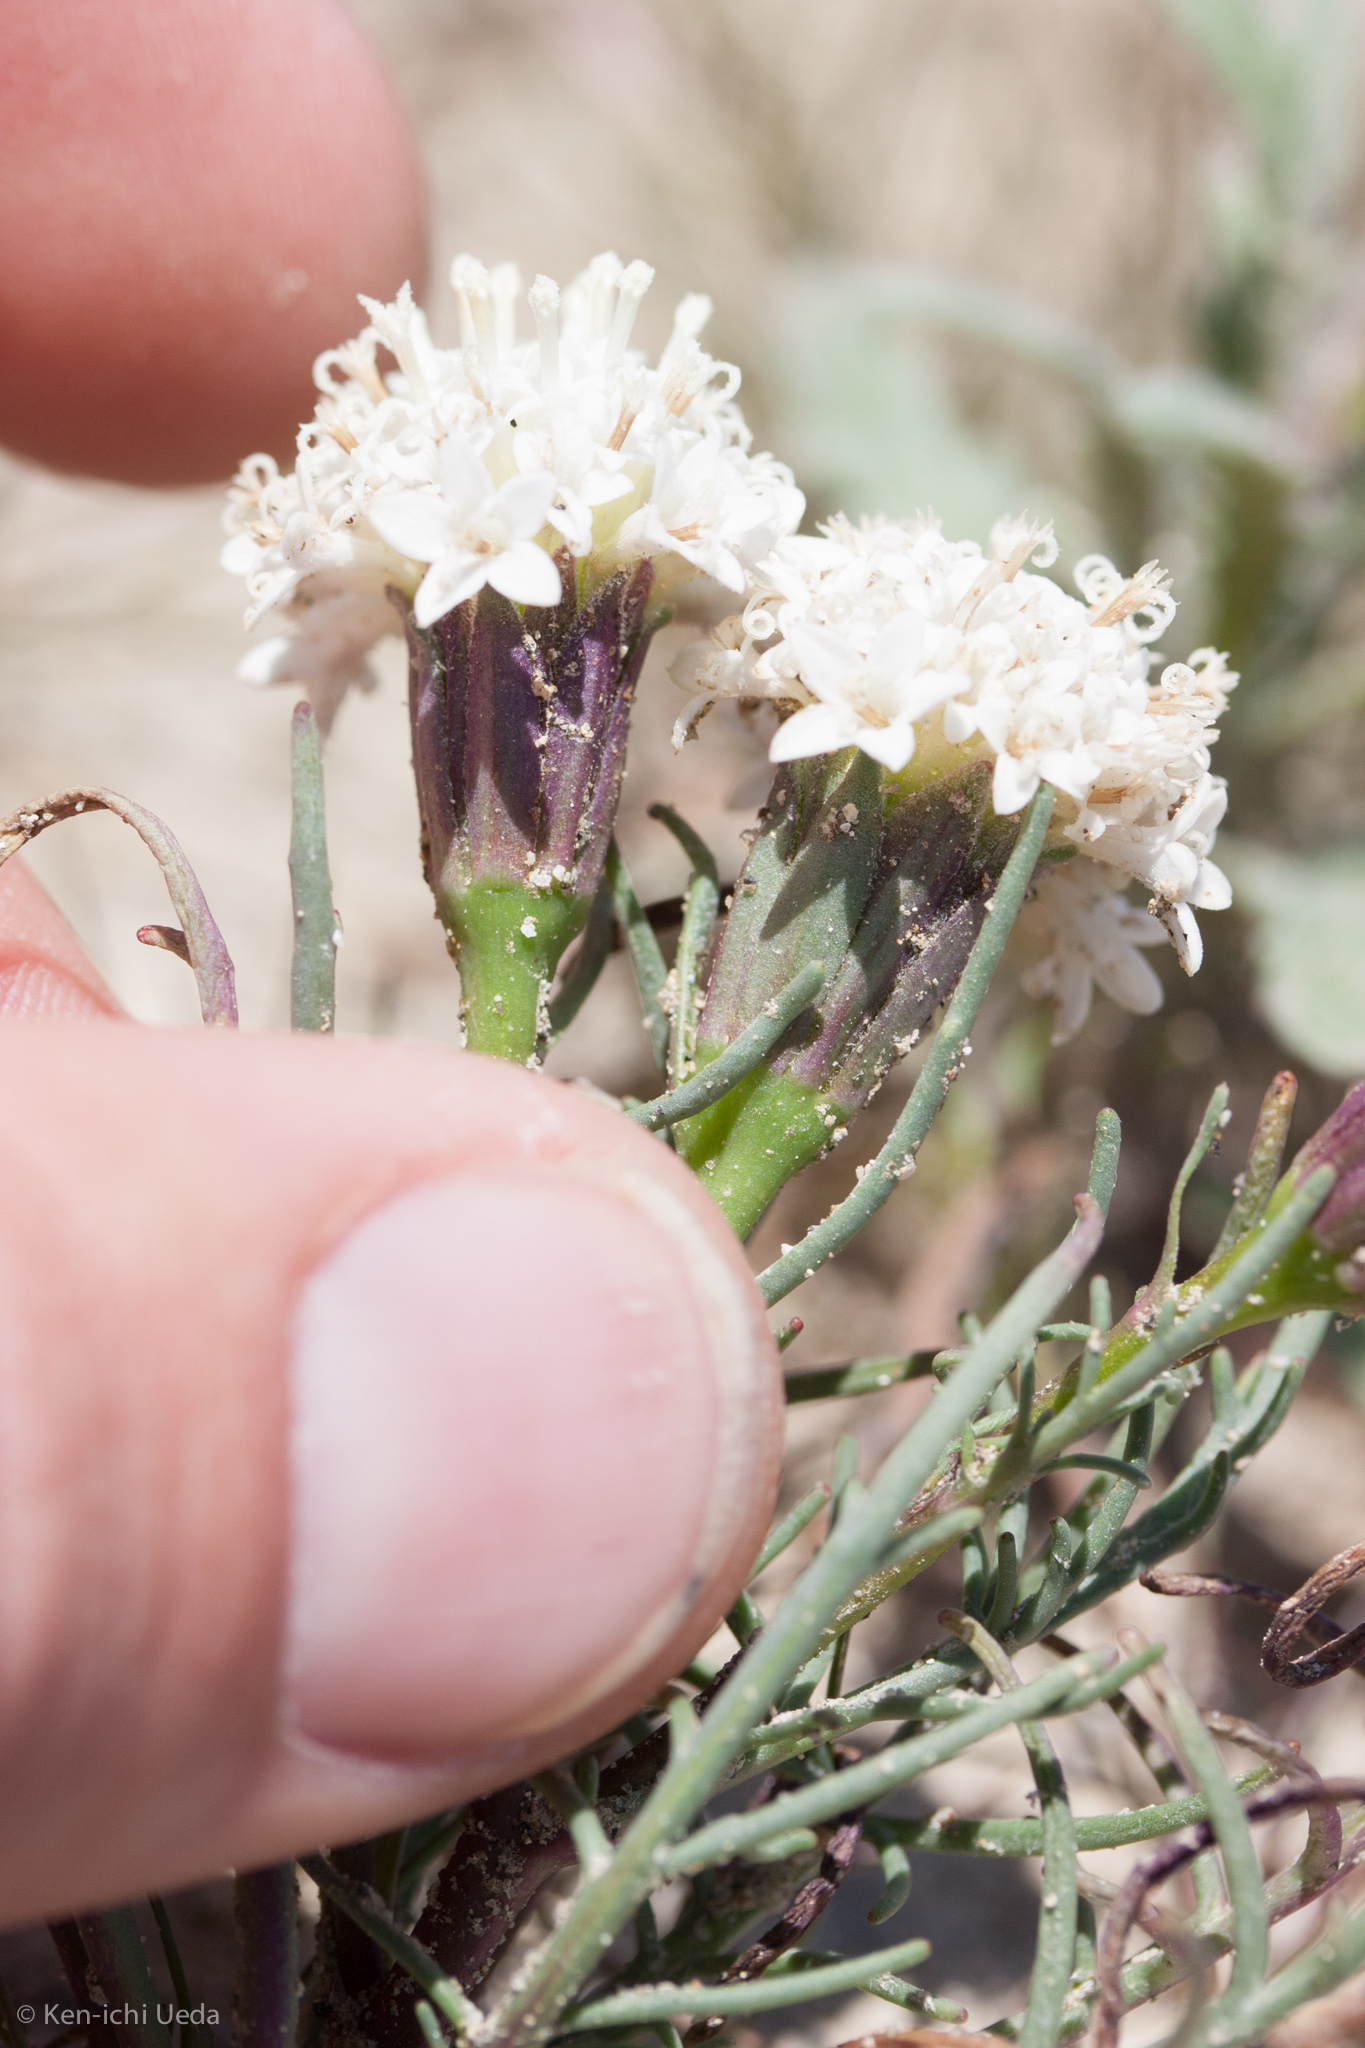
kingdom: Plantae
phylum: Tracheophyta
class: Magnoliopsida
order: Asterales
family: Asteraceae
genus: Chaenactis
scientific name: Chaenactis xantiana
